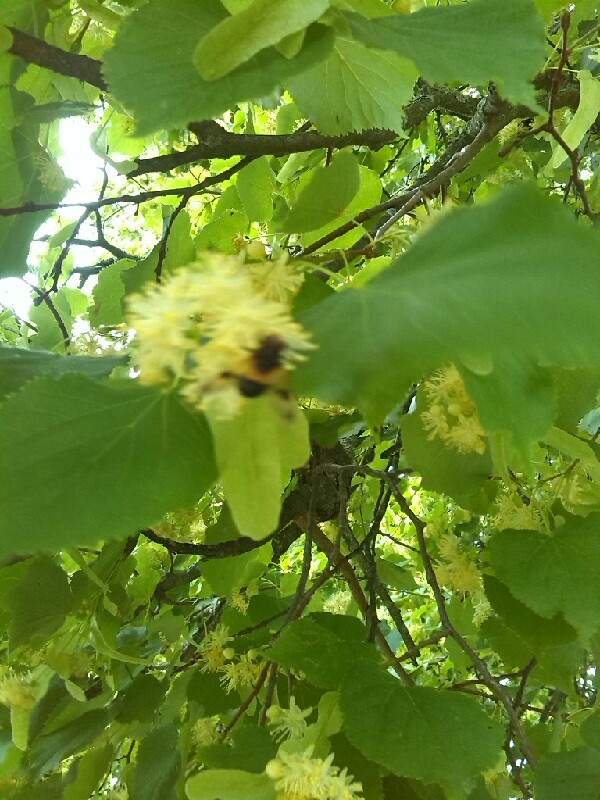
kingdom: Animalia
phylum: Arthropoda
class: Insecta
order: Diptera
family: Syrphidae
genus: Volucella
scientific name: Volucella pellucens
